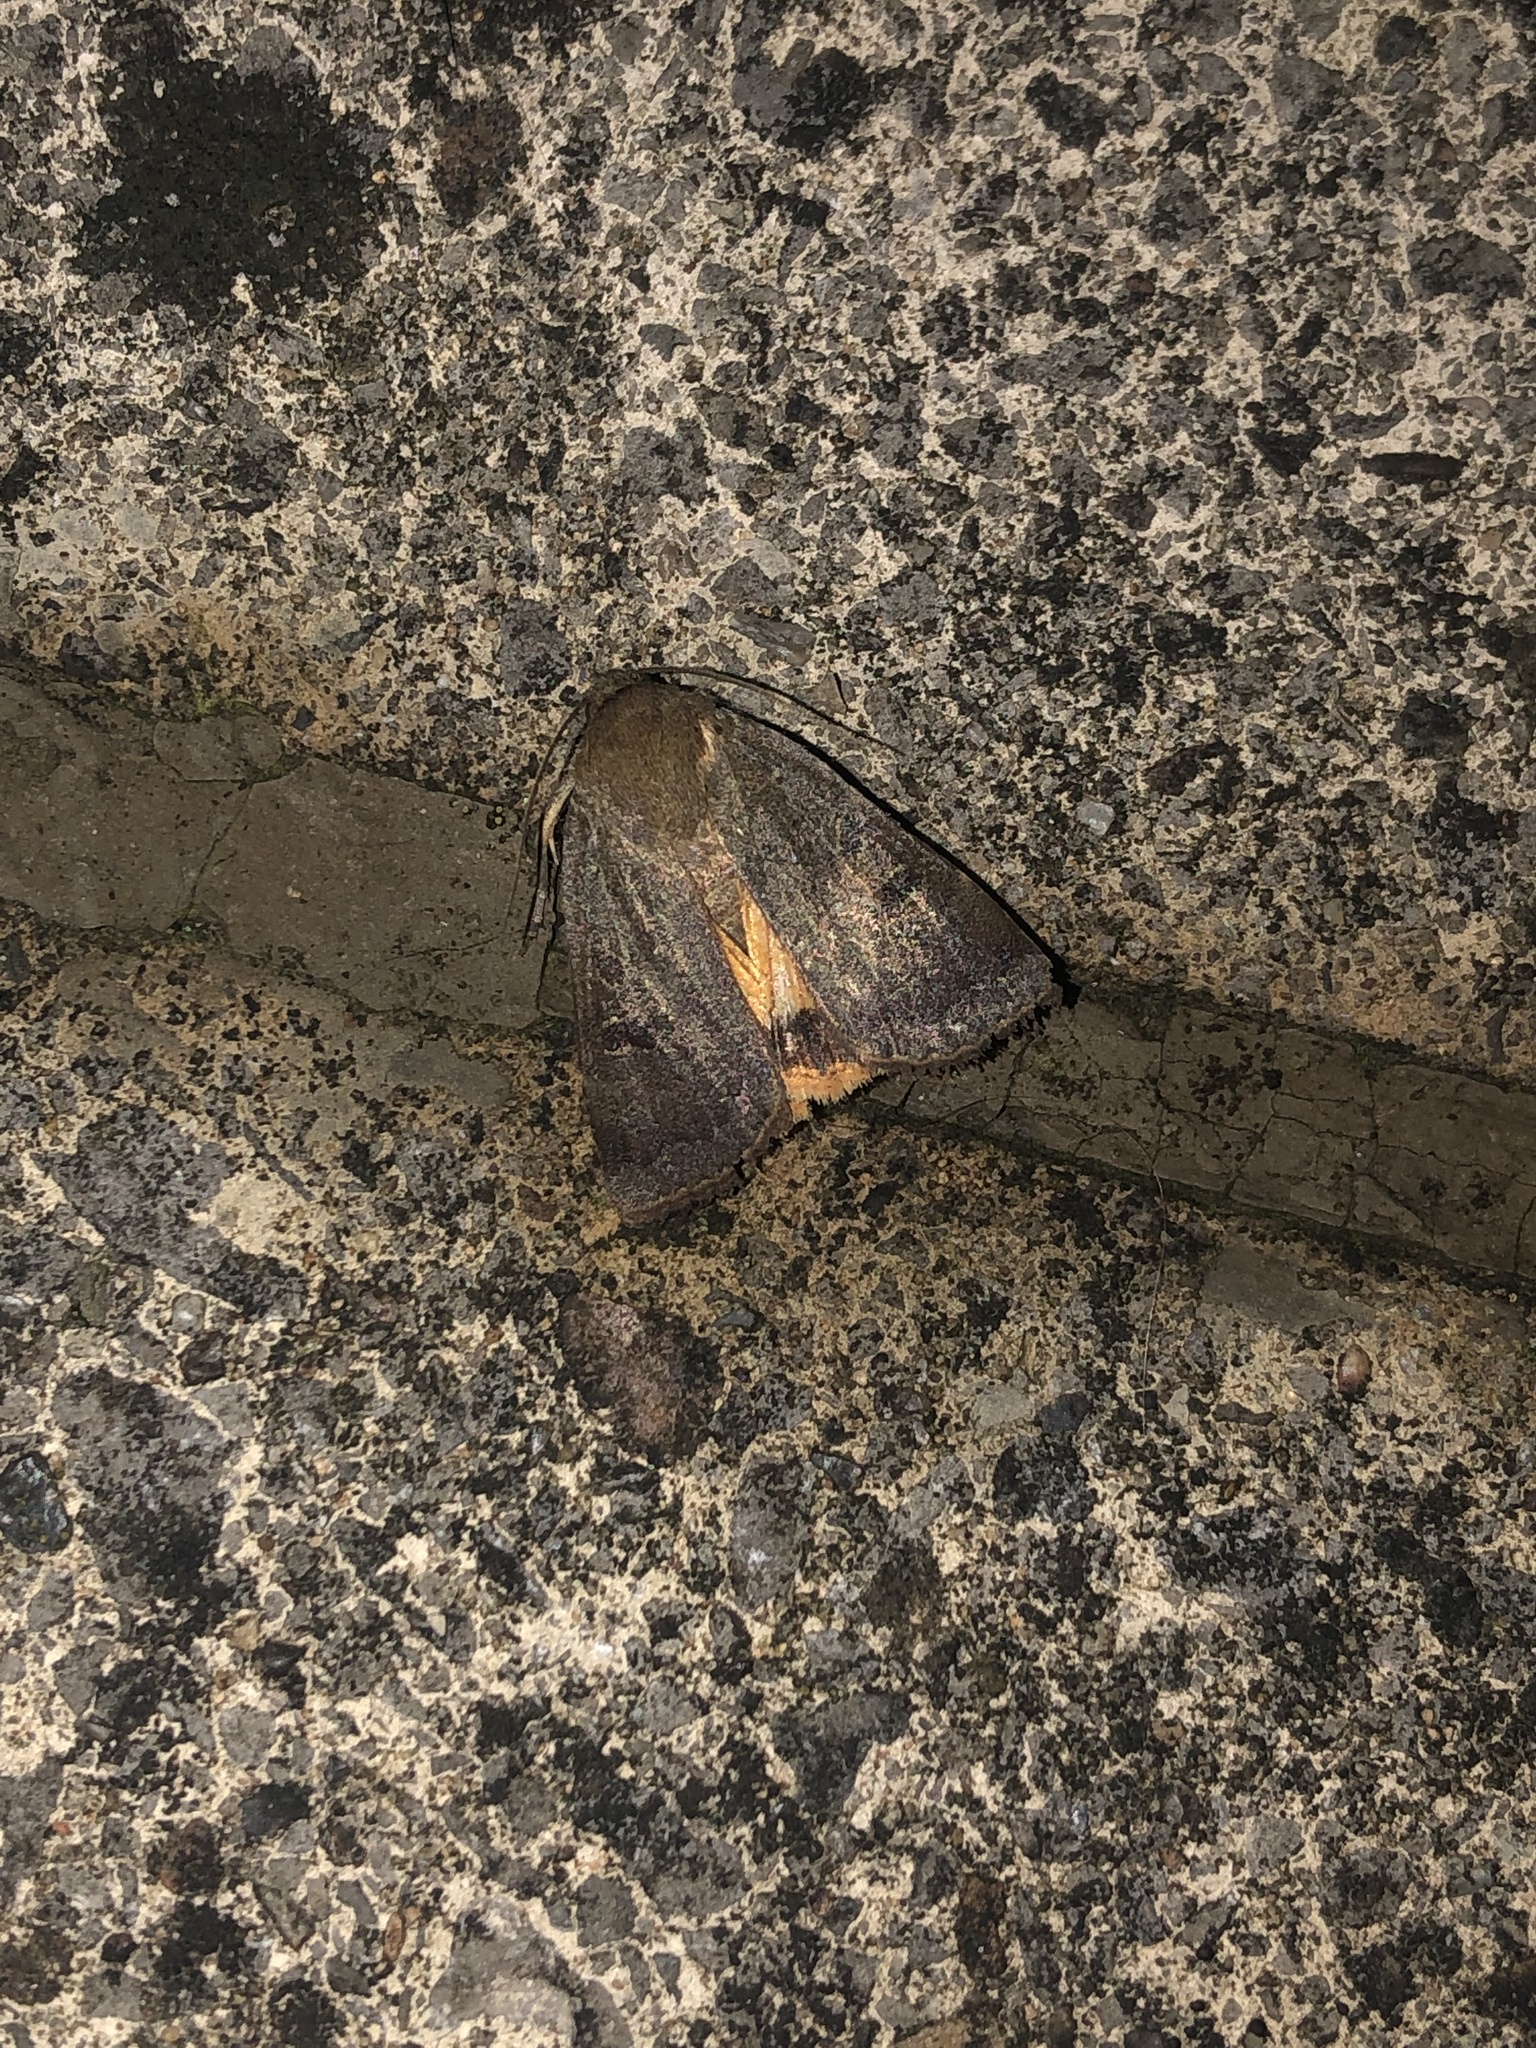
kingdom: Animalia
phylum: Arthropoda
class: Insecta
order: Lepidoptera
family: Noctuidae
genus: Noctua
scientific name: Noctua comes
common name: Lesser yellow underwing
